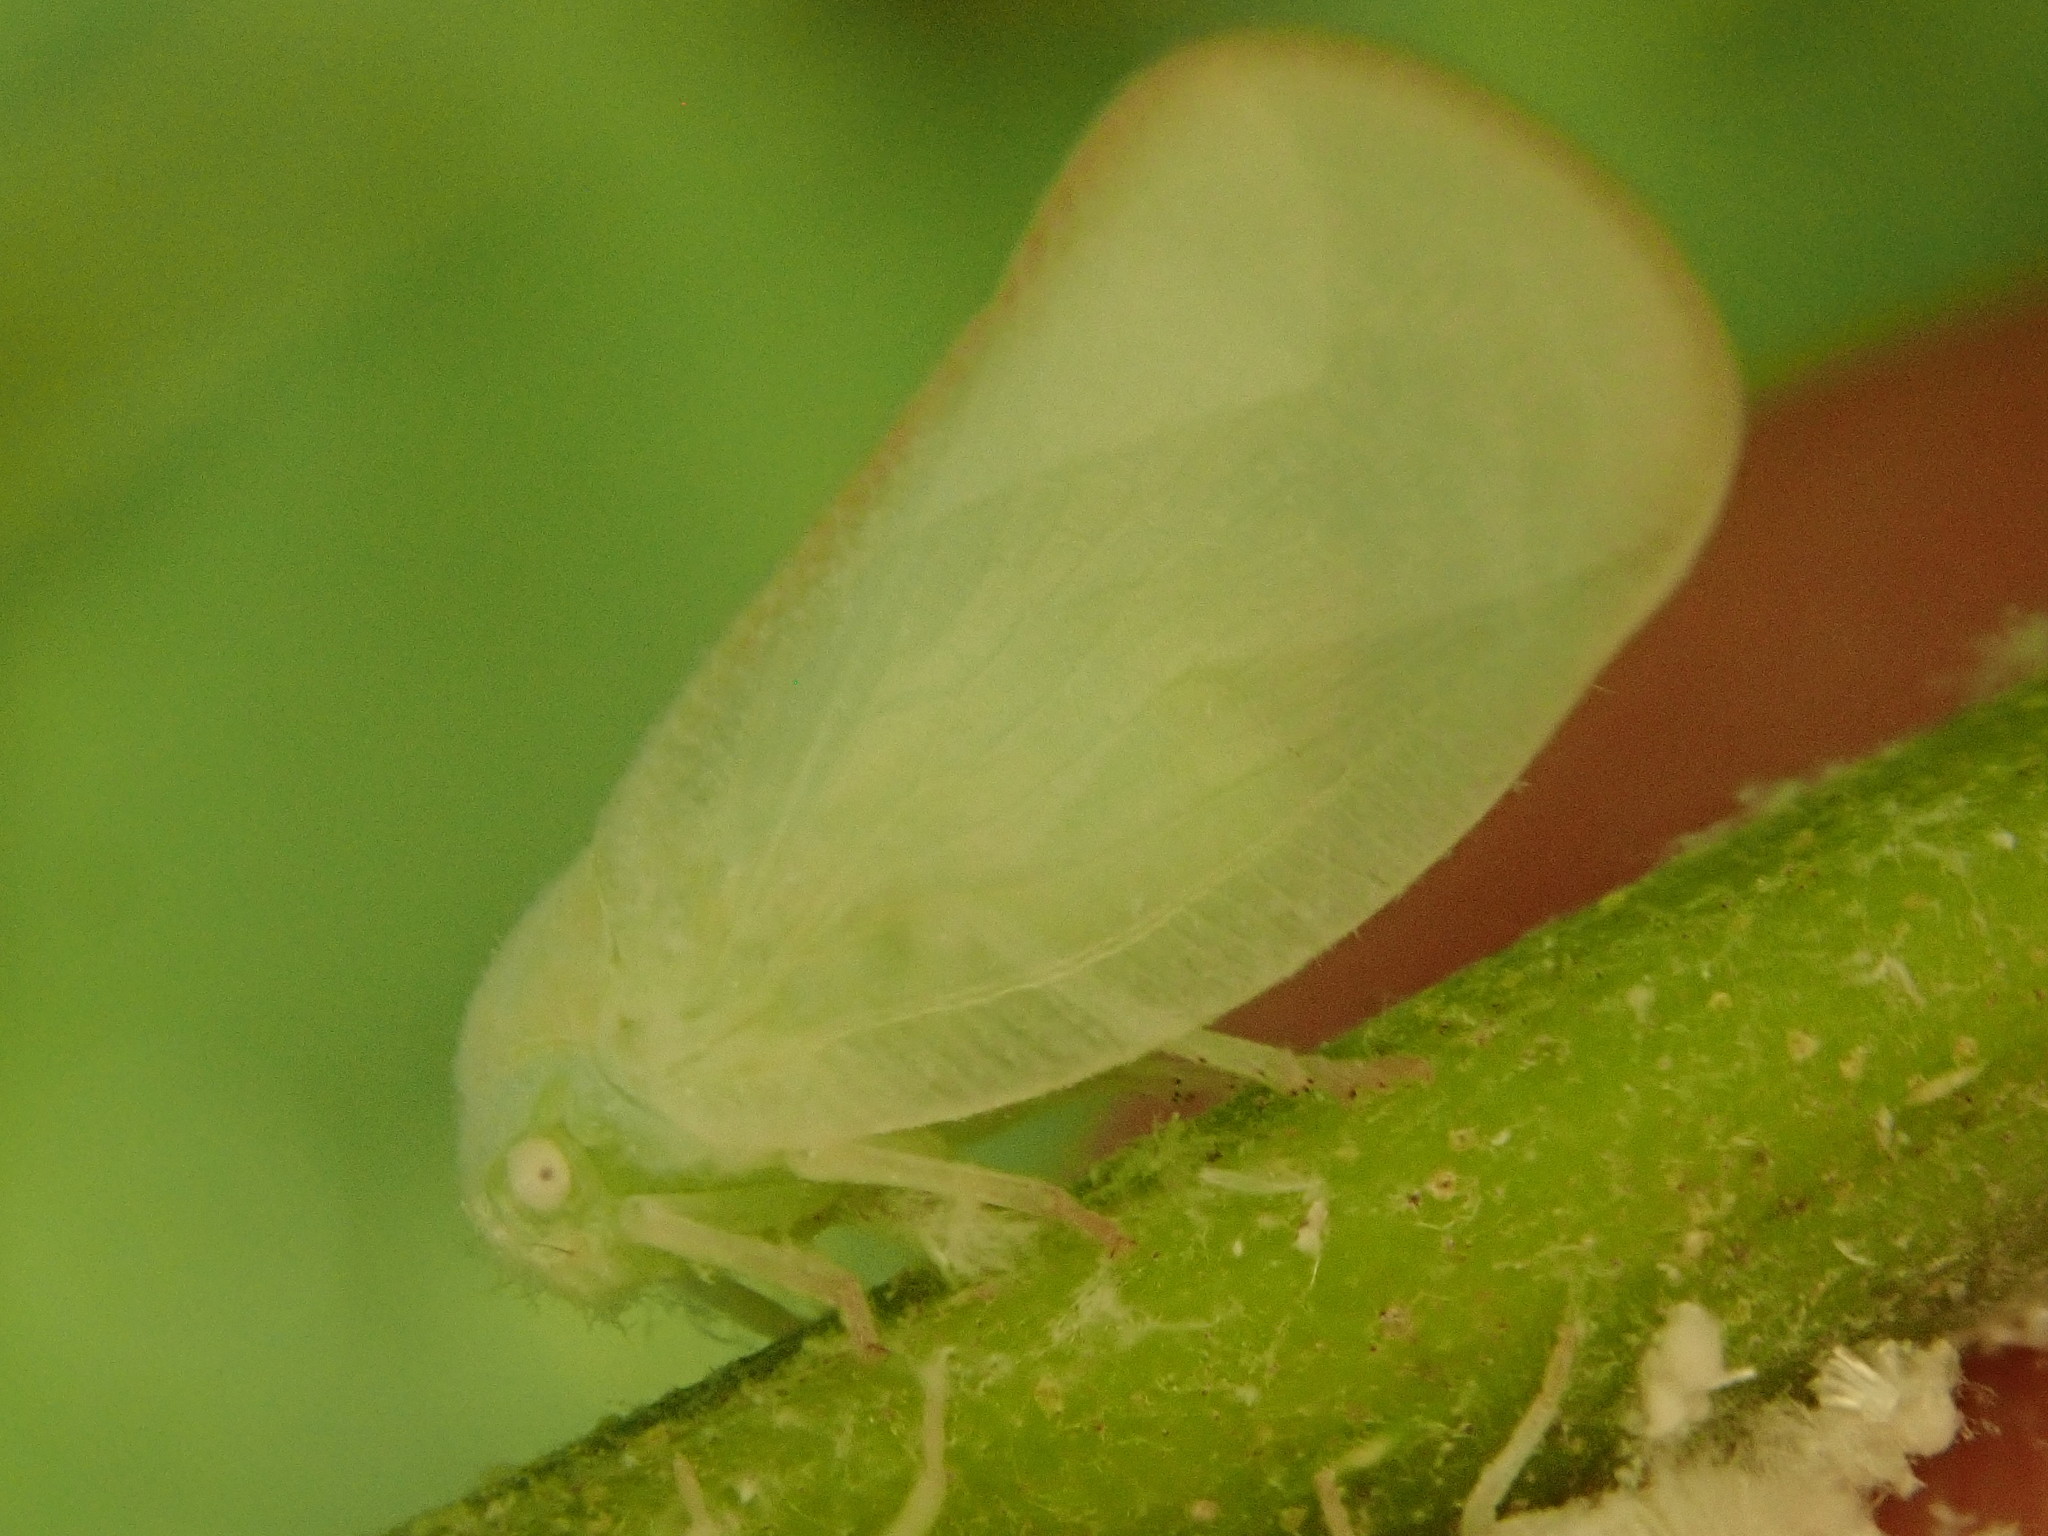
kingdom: Animalia
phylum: Arthropoda
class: Insecta
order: Hemiptera
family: Flatidae
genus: Ormenoides
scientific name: Ormenoides venusta
